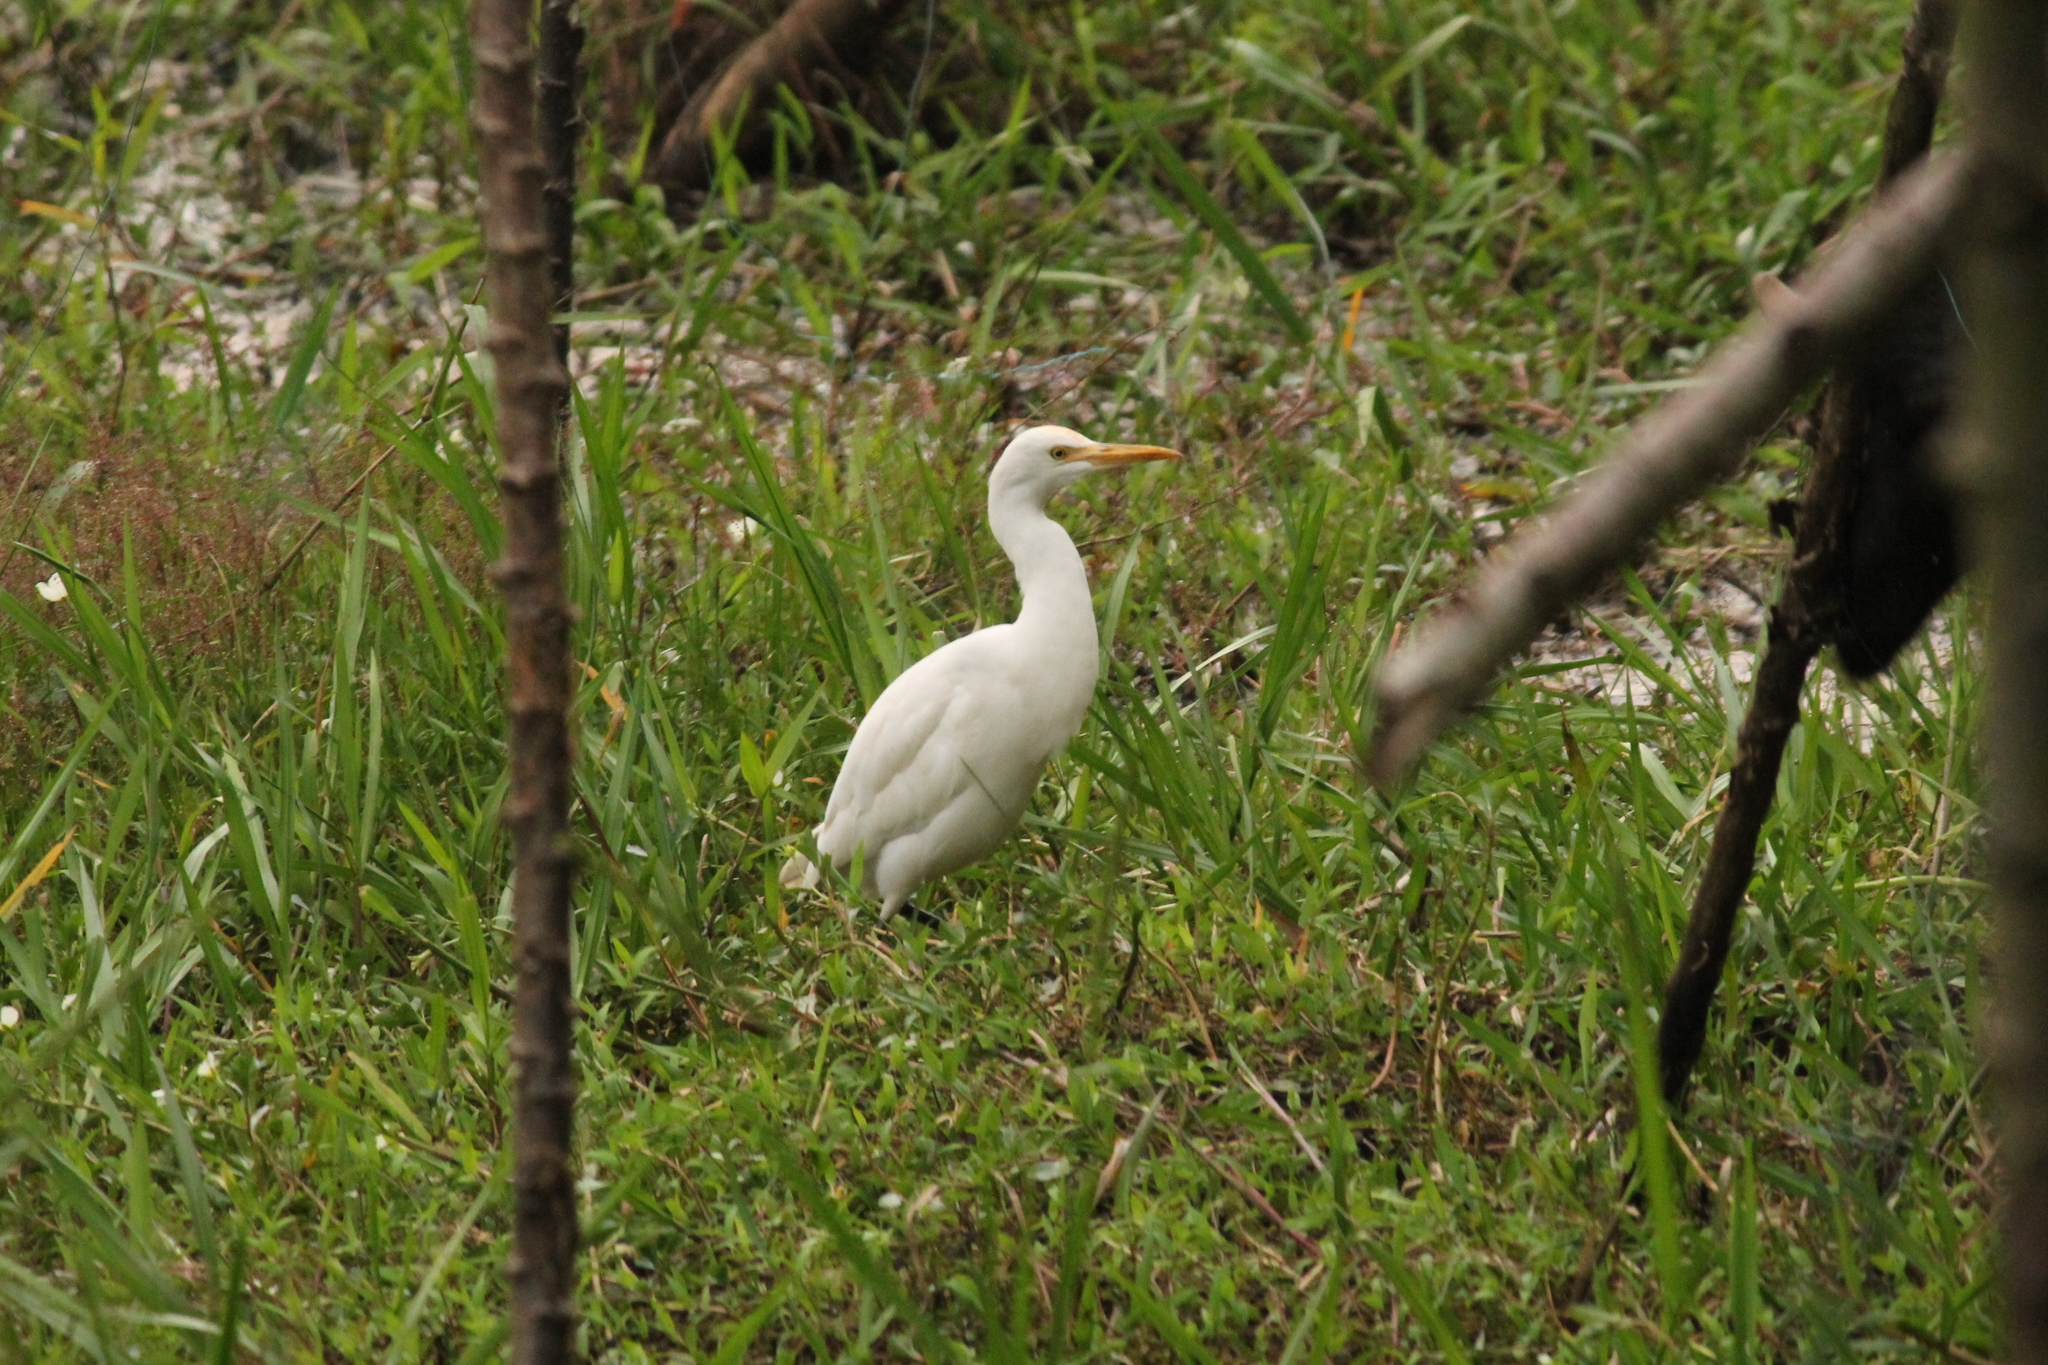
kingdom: Animalia
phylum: Chordata
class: Aves
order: Pelecaniformes
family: Ardeidae
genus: Bubulcus
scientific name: Bubulcus coromandus
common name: Eastern cattle egret
